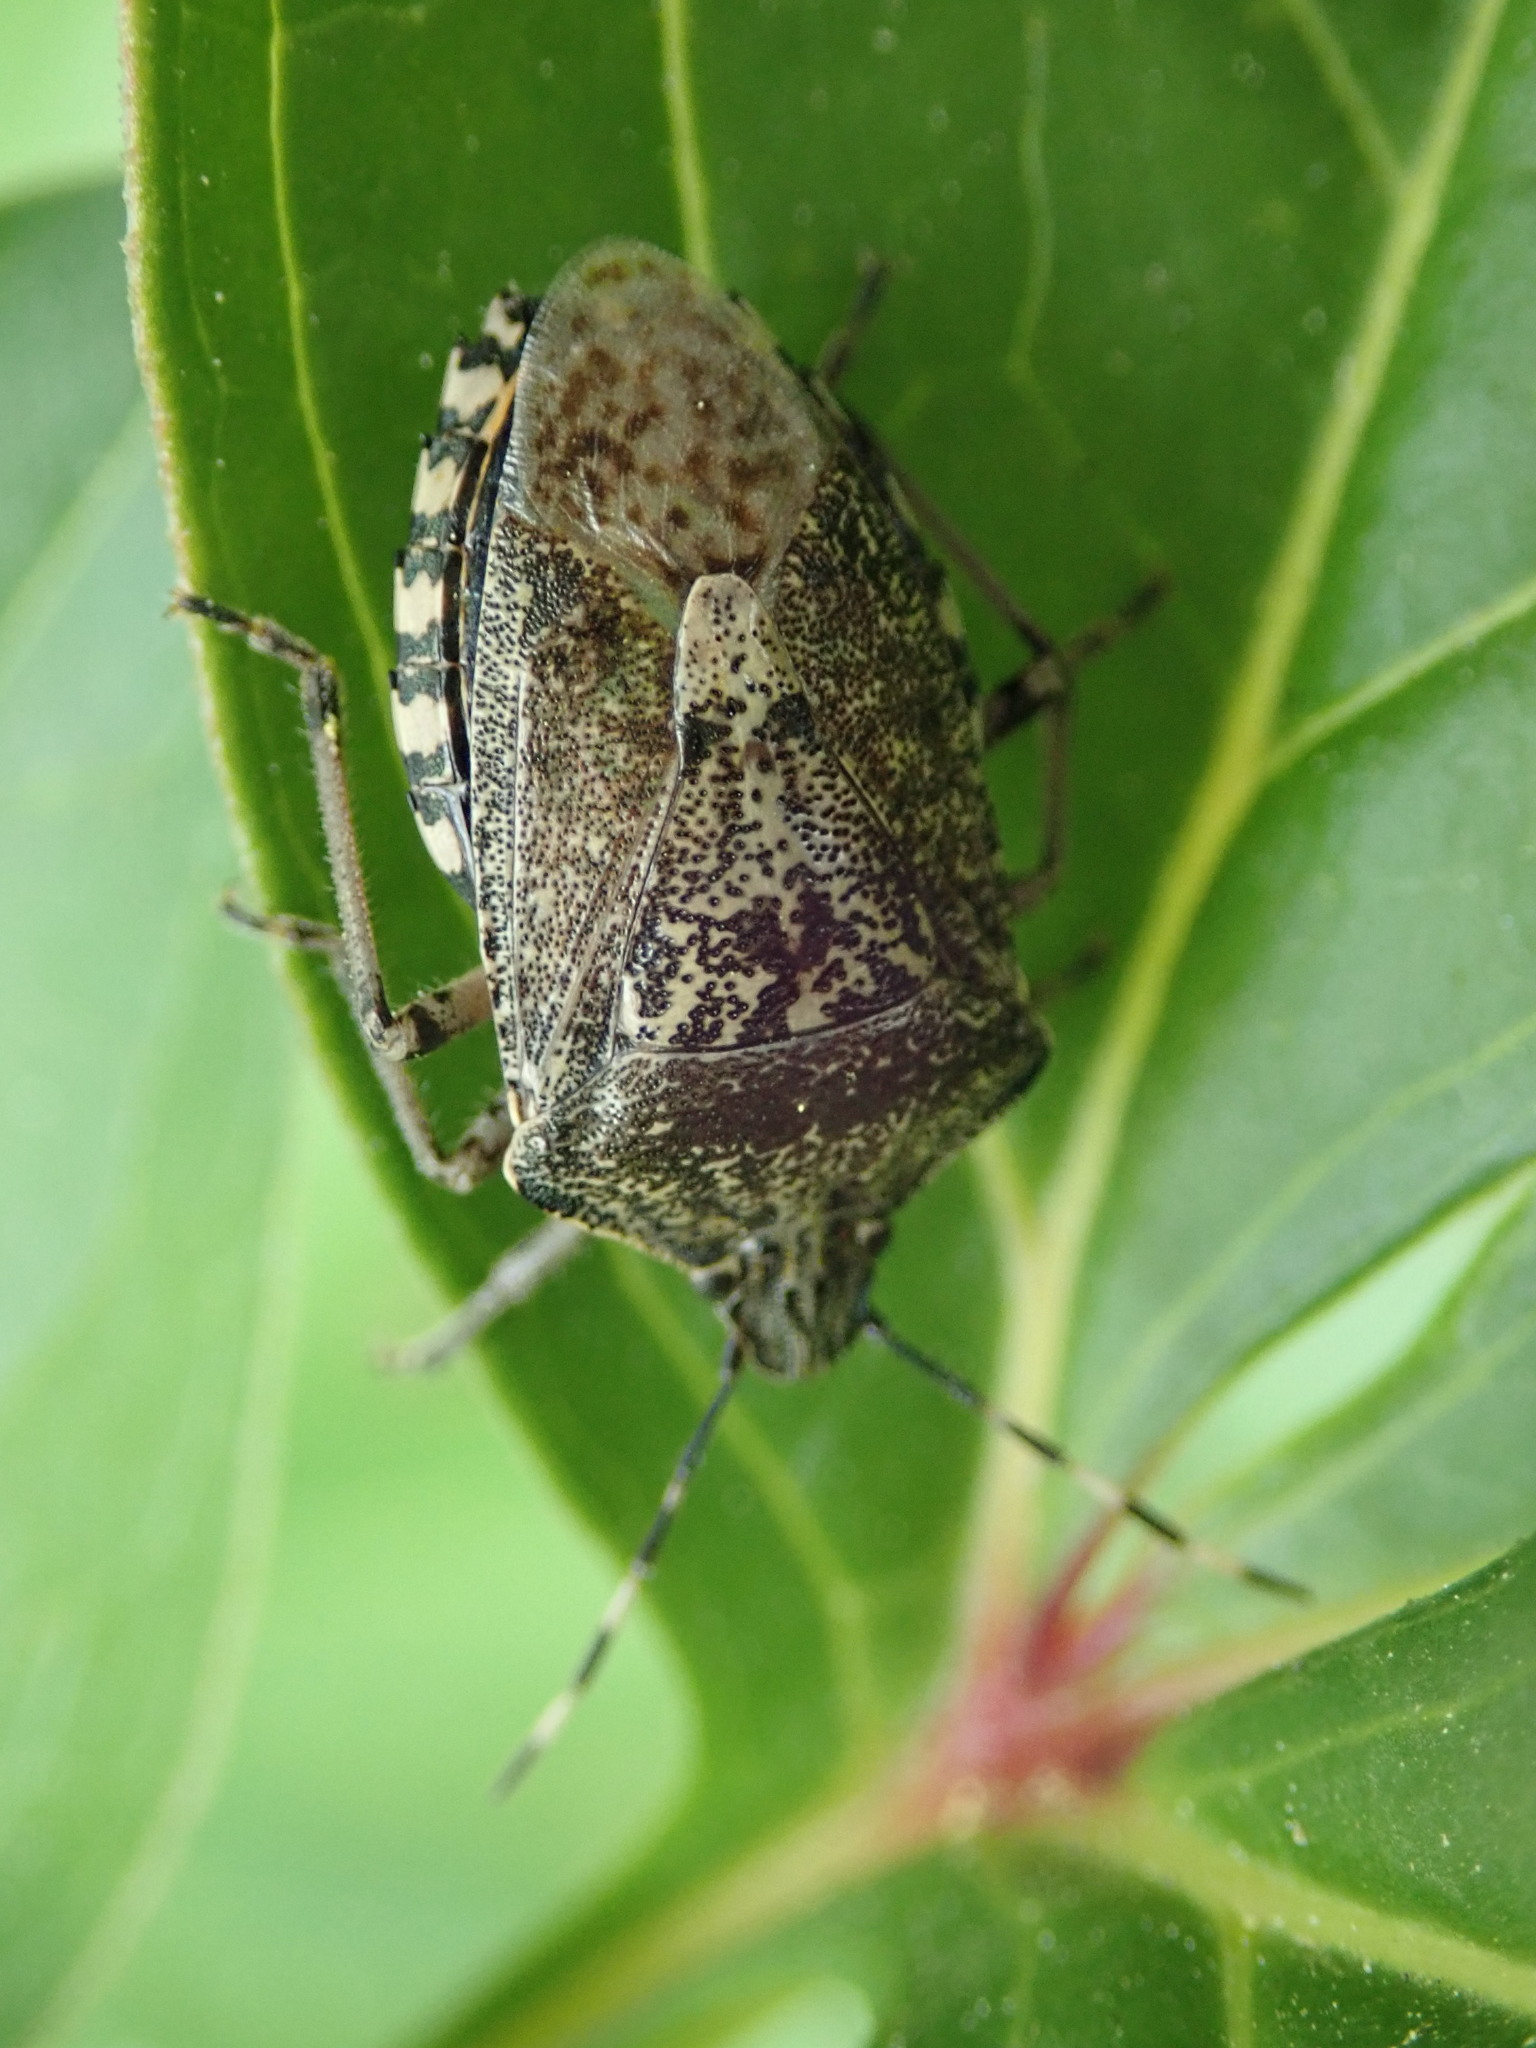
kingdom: Animalia
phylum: Arthropoda
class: Insecta
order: Hemiptera
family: Pentatomidae
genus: Rhaphigaster
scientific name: Rhaphigaster nebulosa
